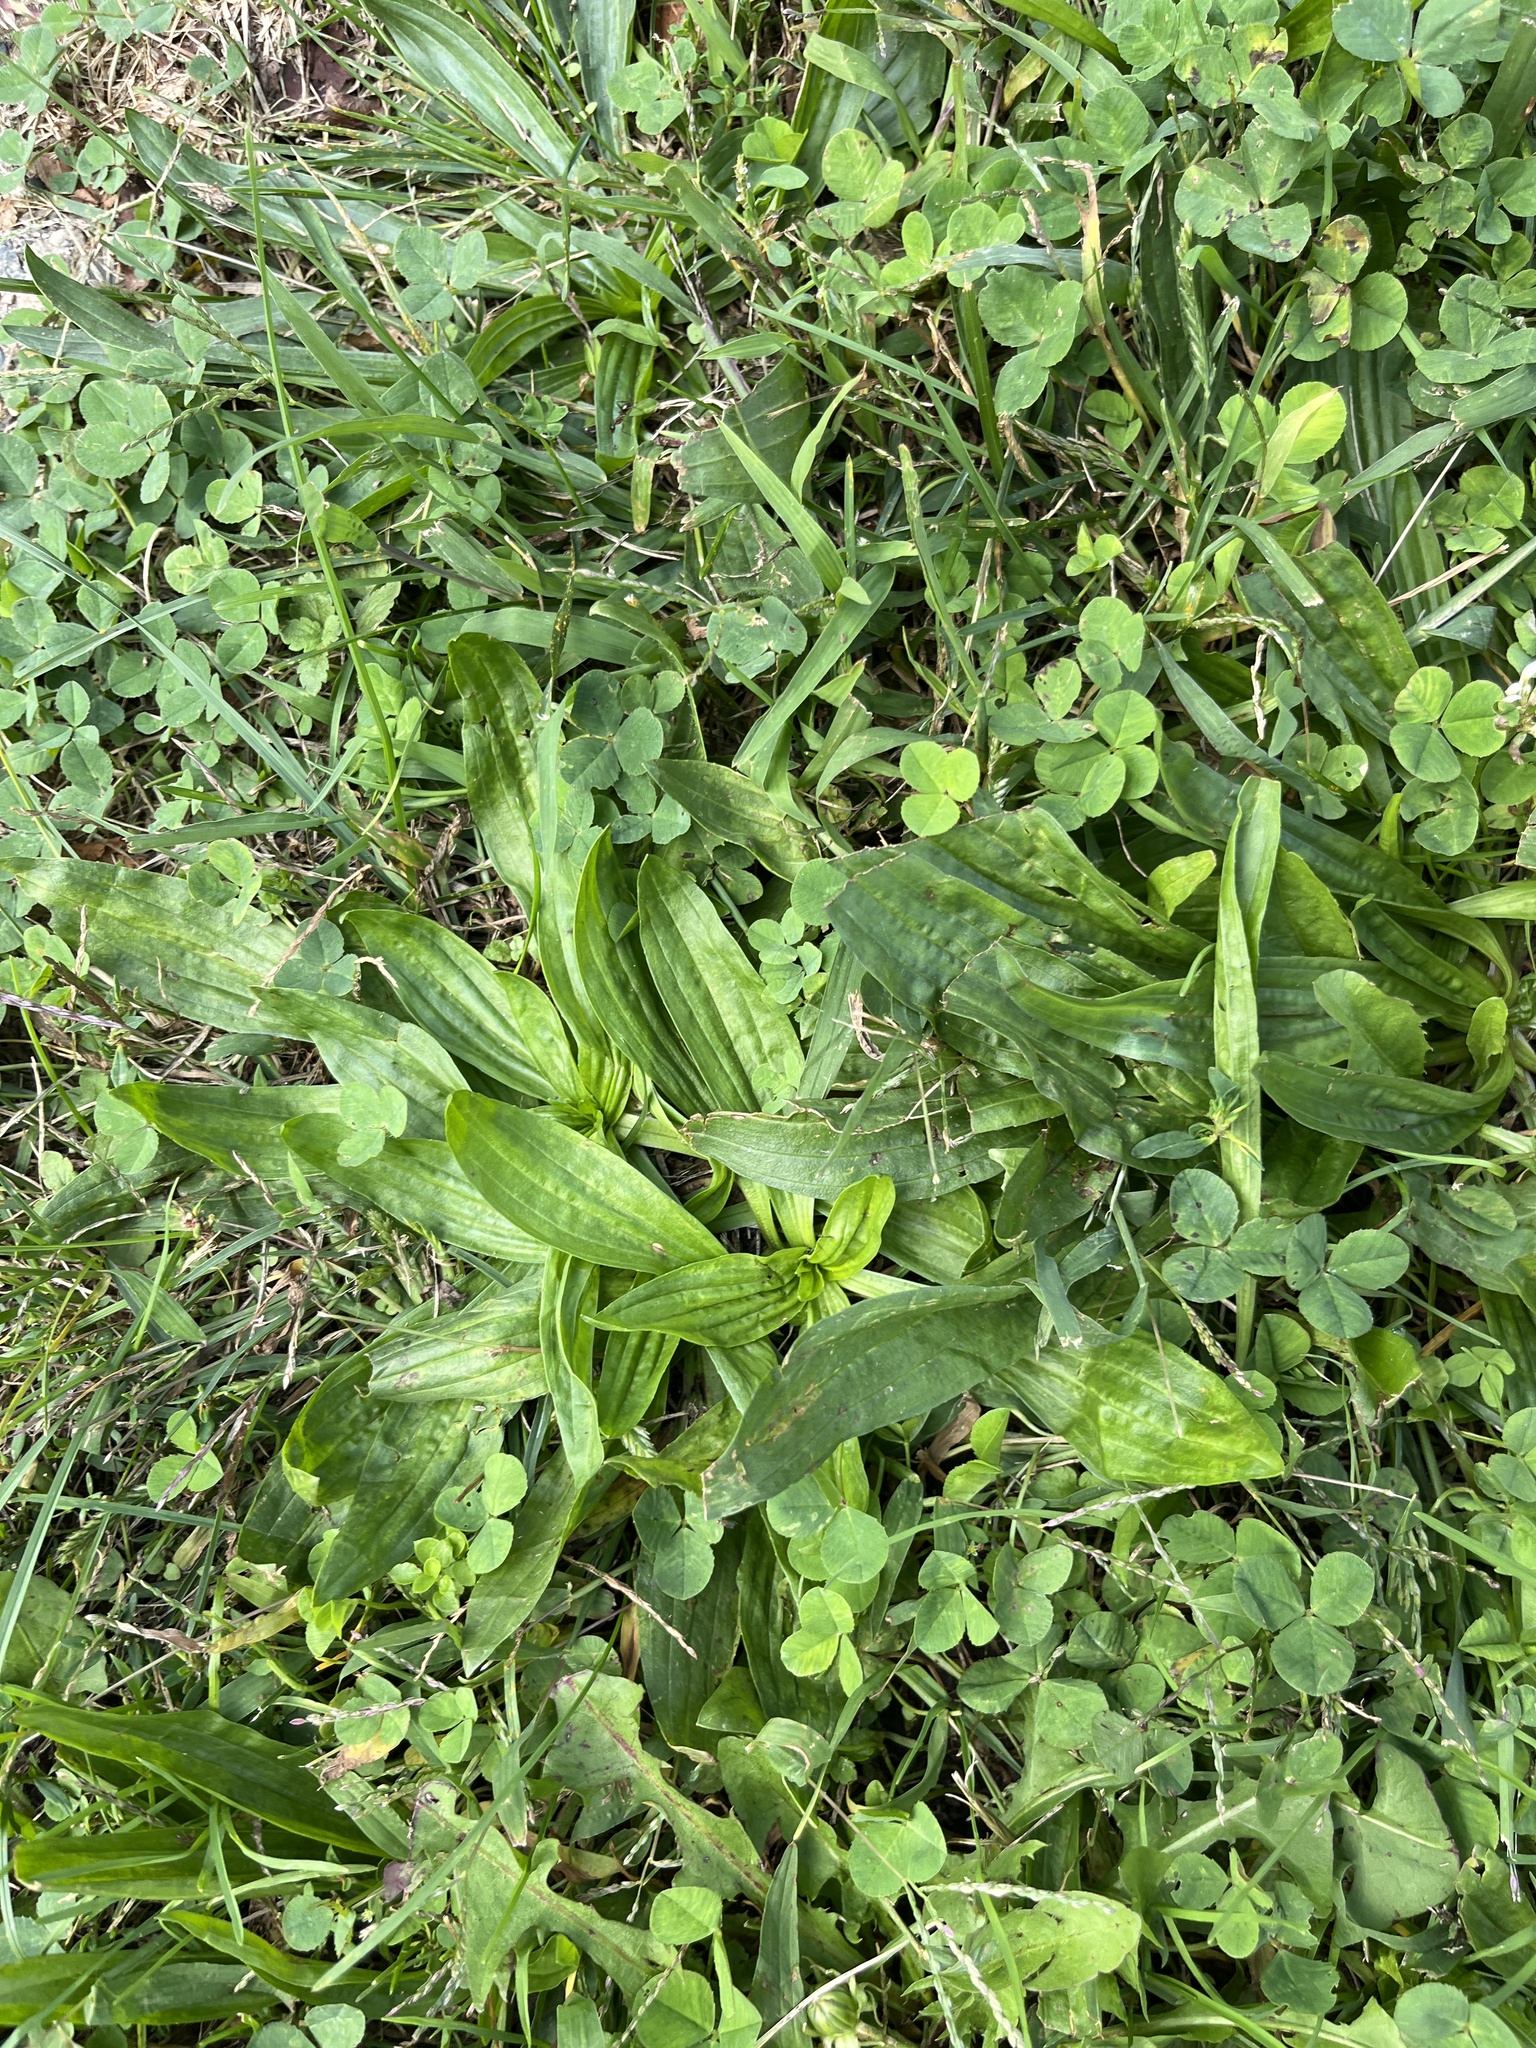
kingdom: Plantae
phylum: Tracheophyta
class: Magnoliopsida
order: Lamiales
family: Plantaginaceae
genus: Plantago
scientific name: Plantago lanceolata
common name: Ribwort plantain
